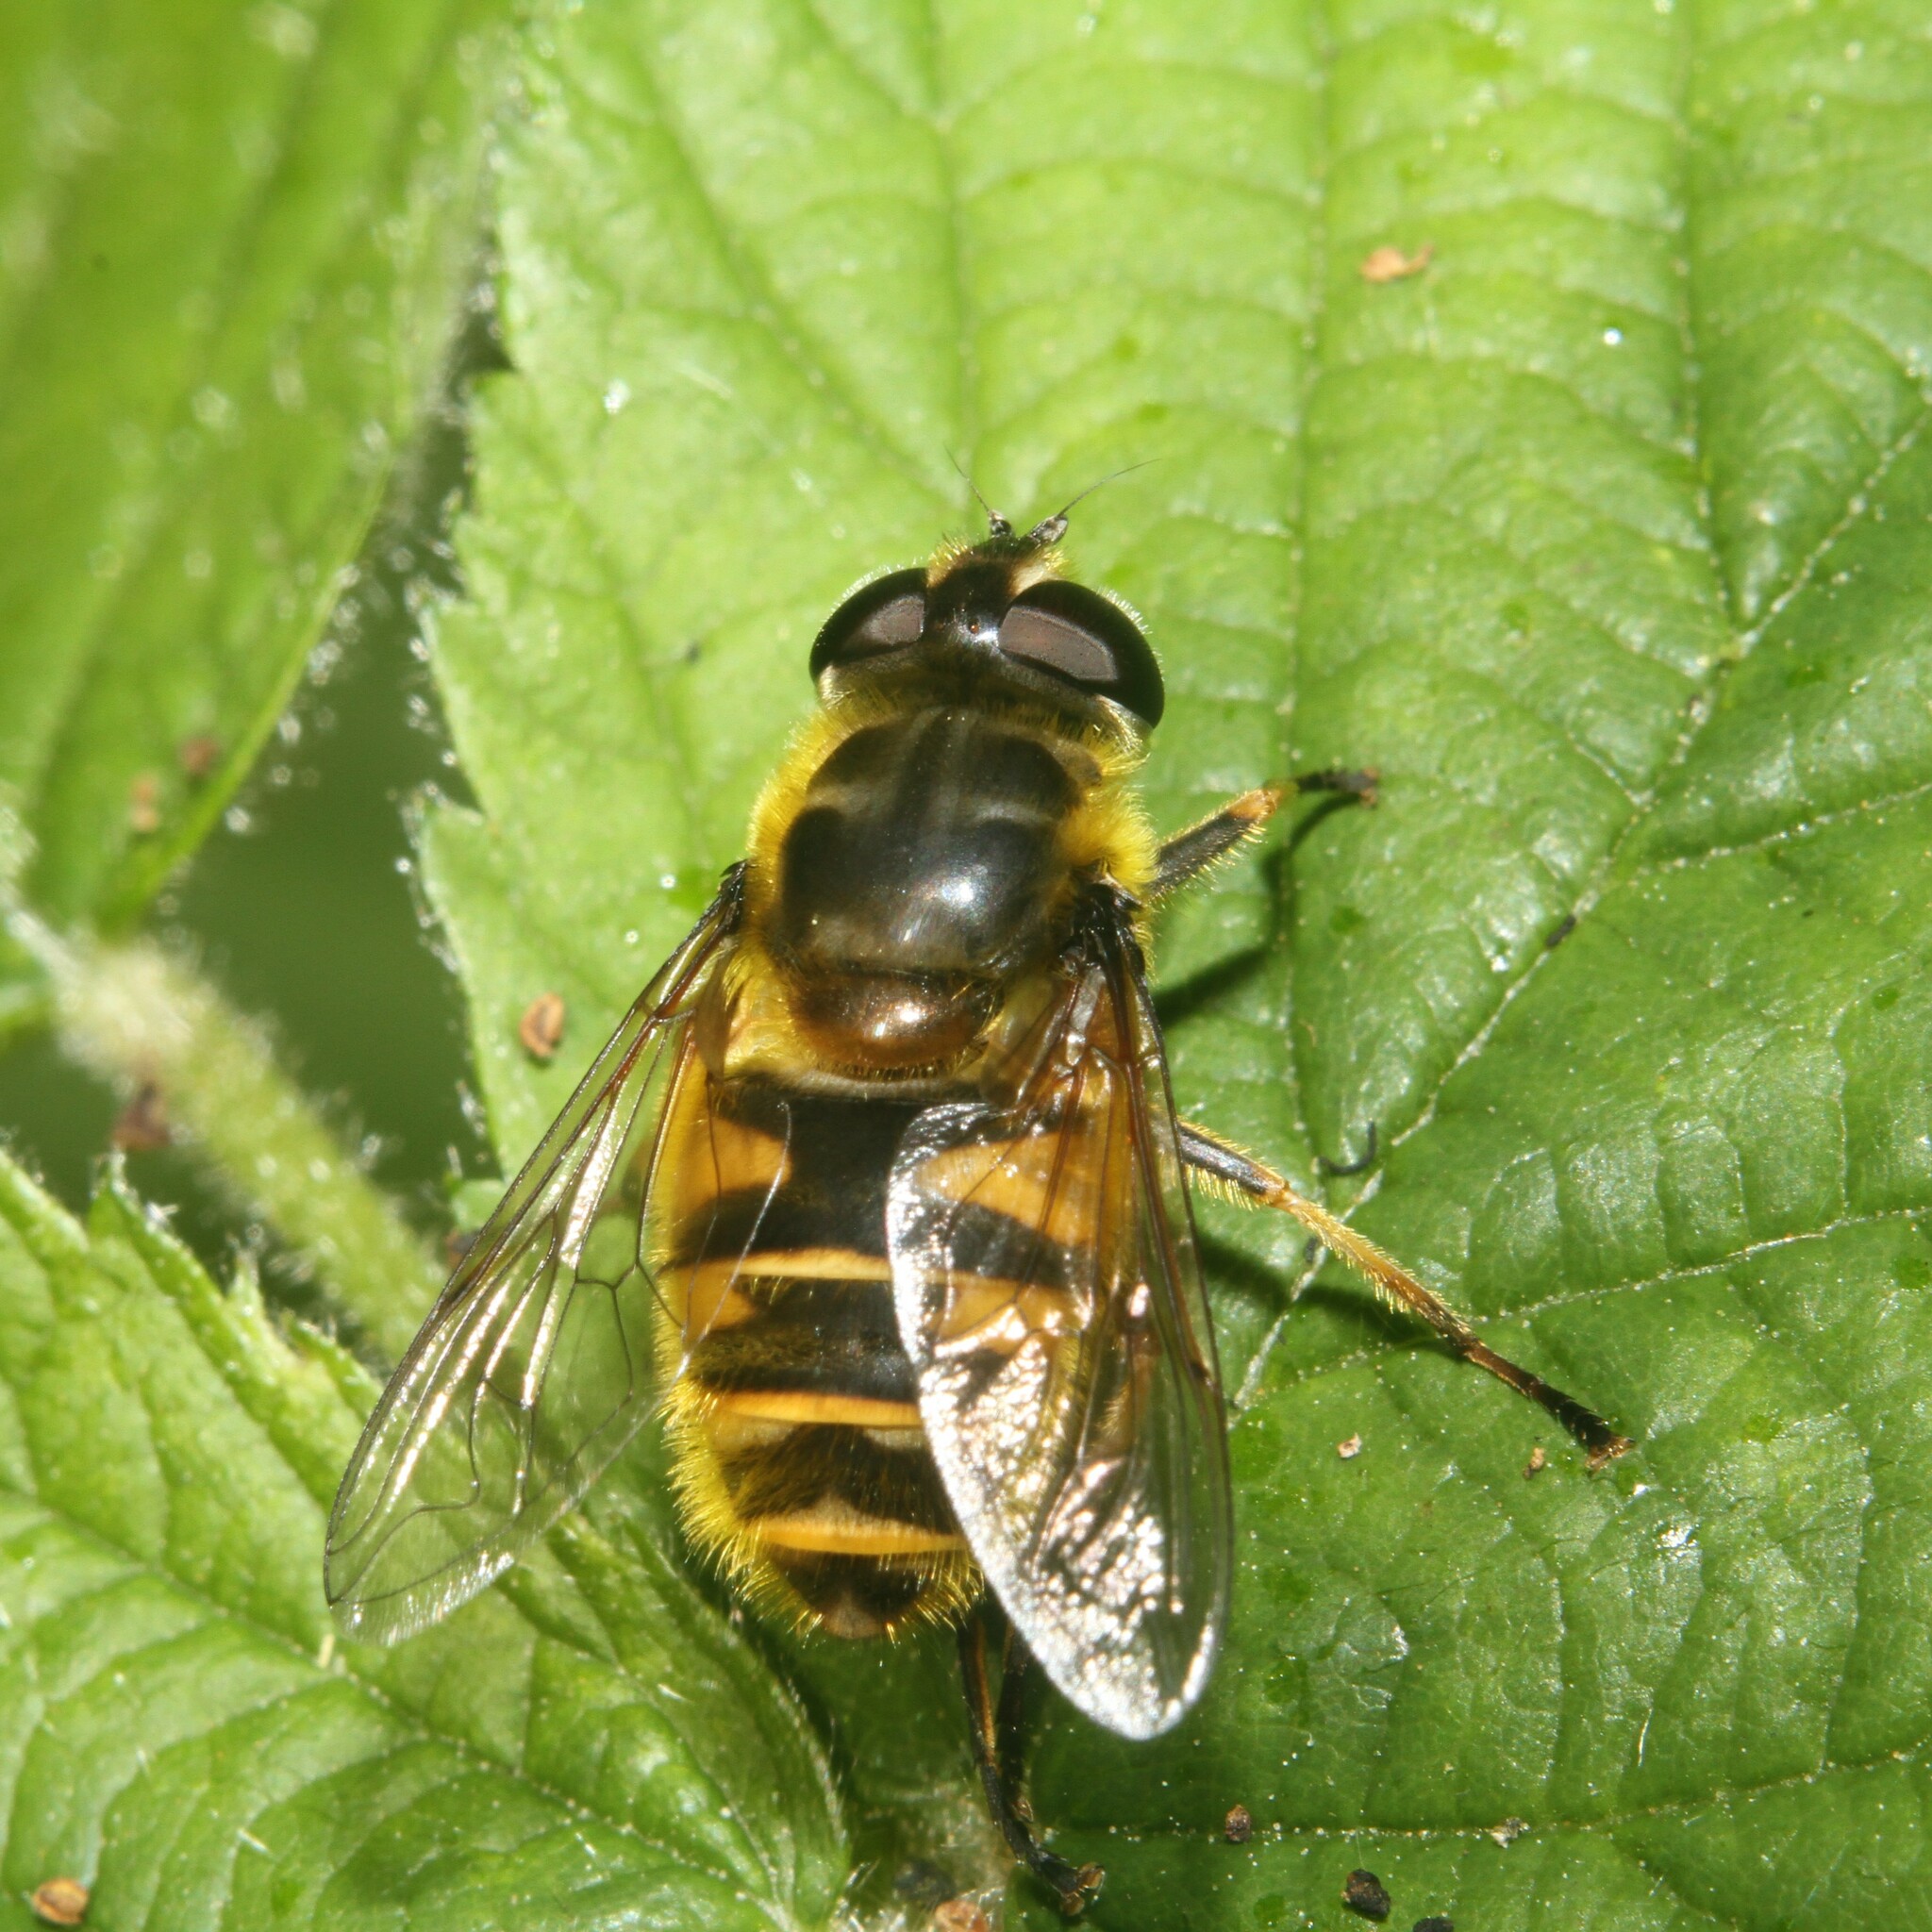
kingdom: Animalia
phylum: Arthropoda
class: Insecta
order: Diptera
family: Syrphidae
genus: Myathropa
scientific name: Myathropa florea
